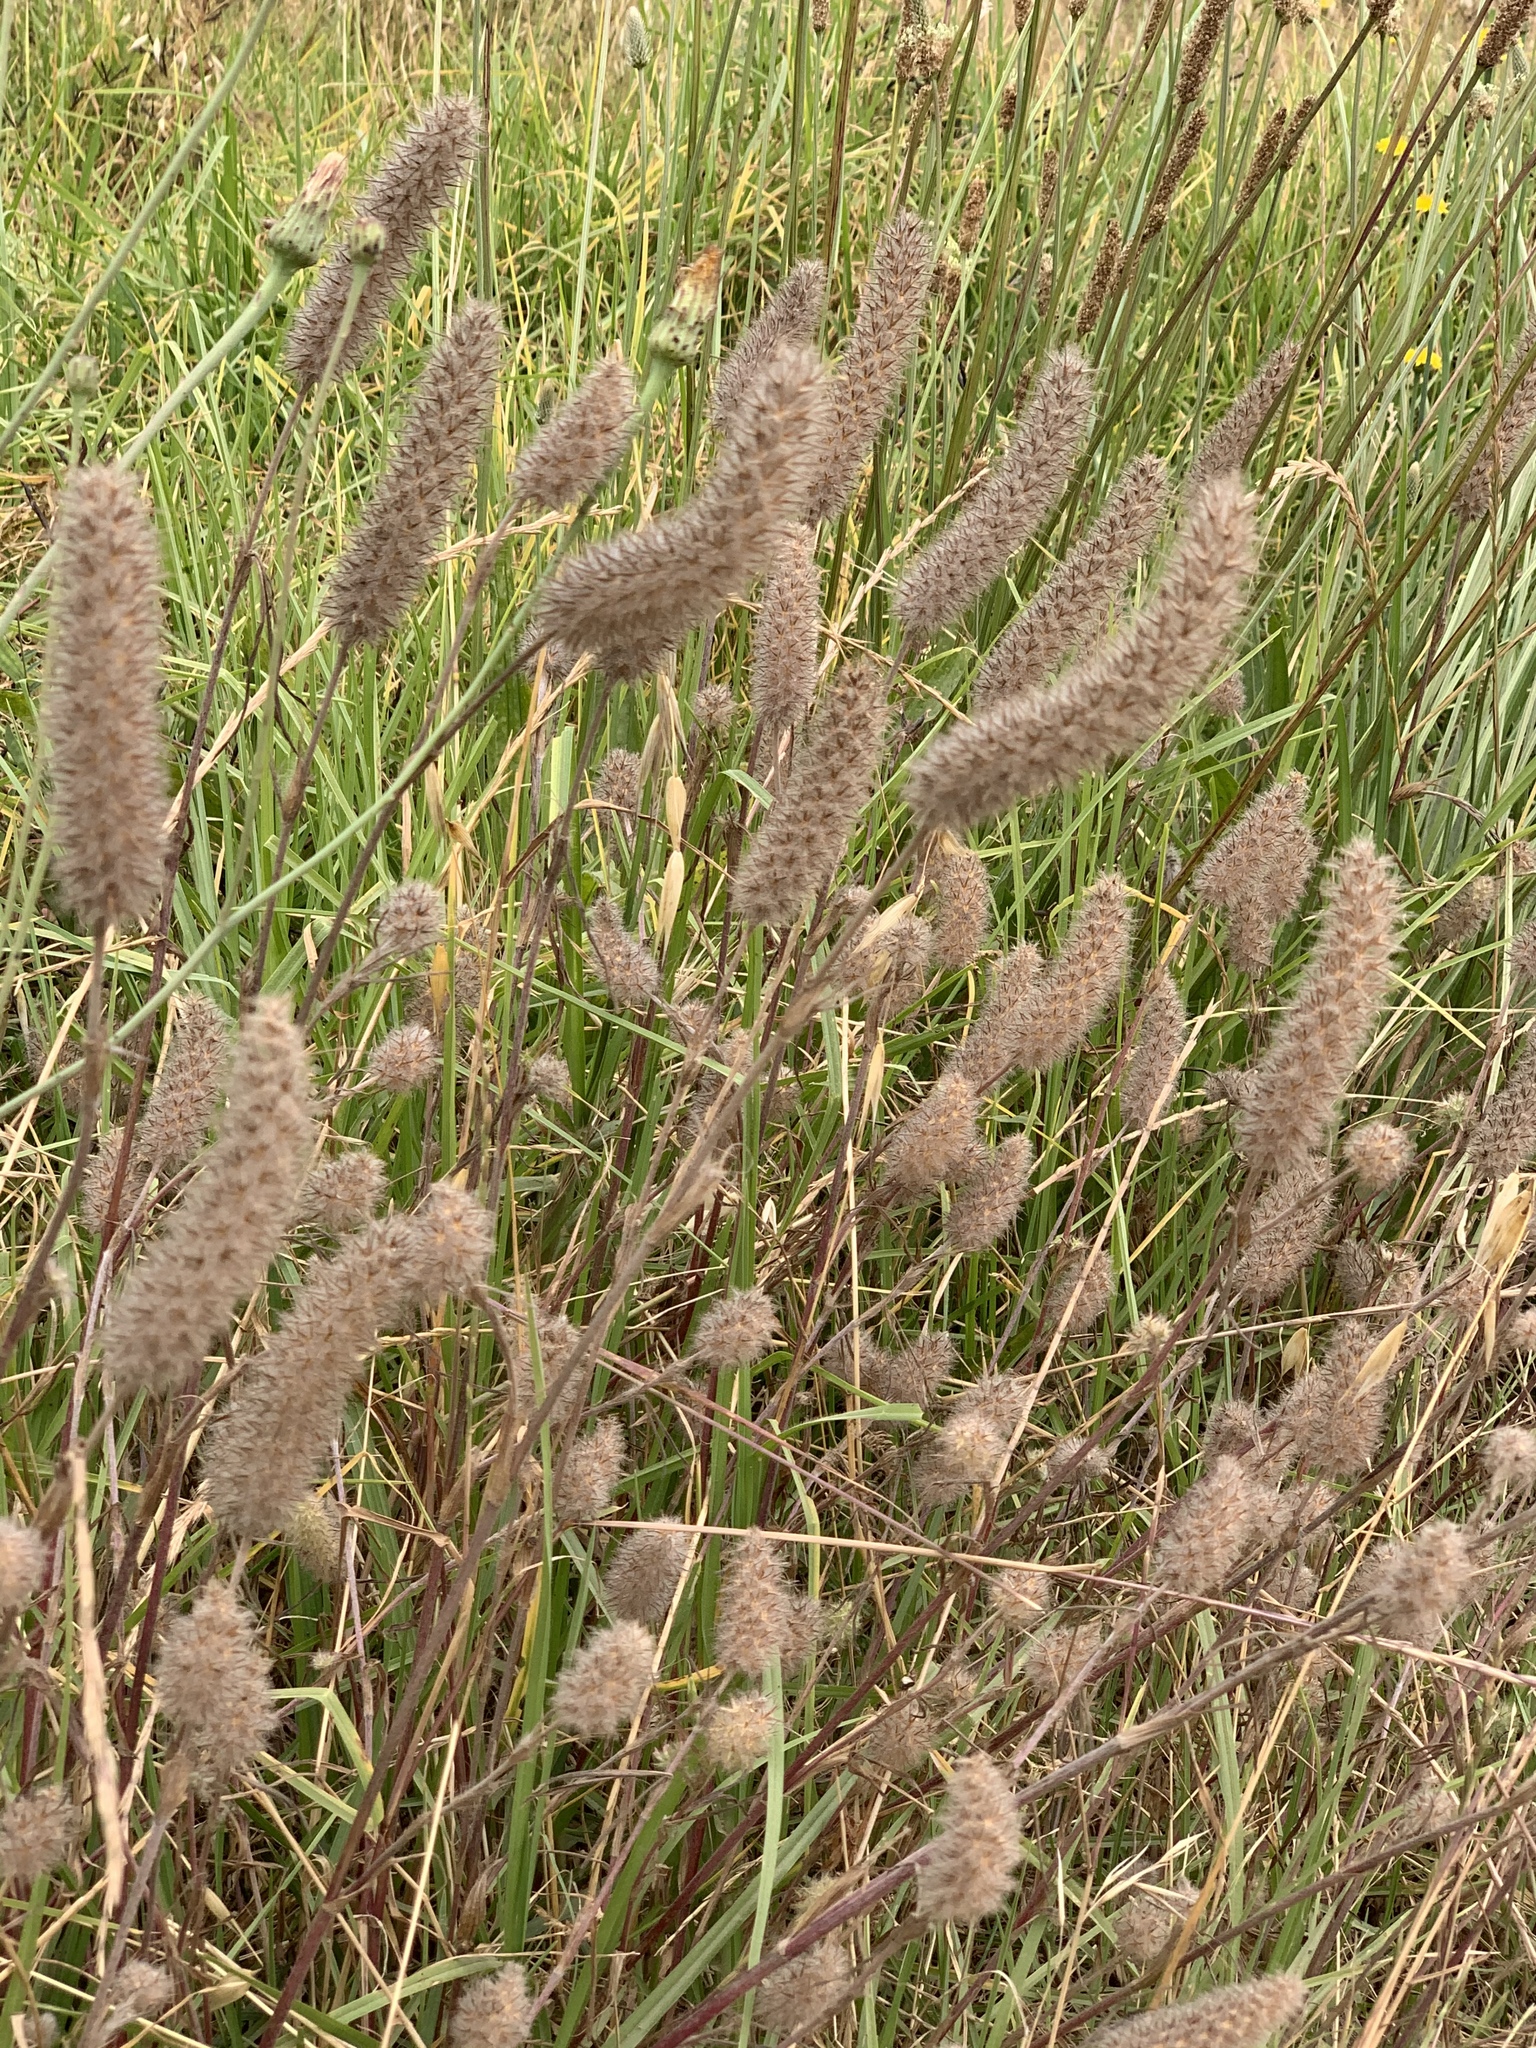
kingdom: Plantae
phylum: Tracheophyta
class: Magnoliopsida
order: Fabales
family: Fabaceae
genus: Trifolium
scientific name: Trifolium angustifolium
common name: Narrow clover
